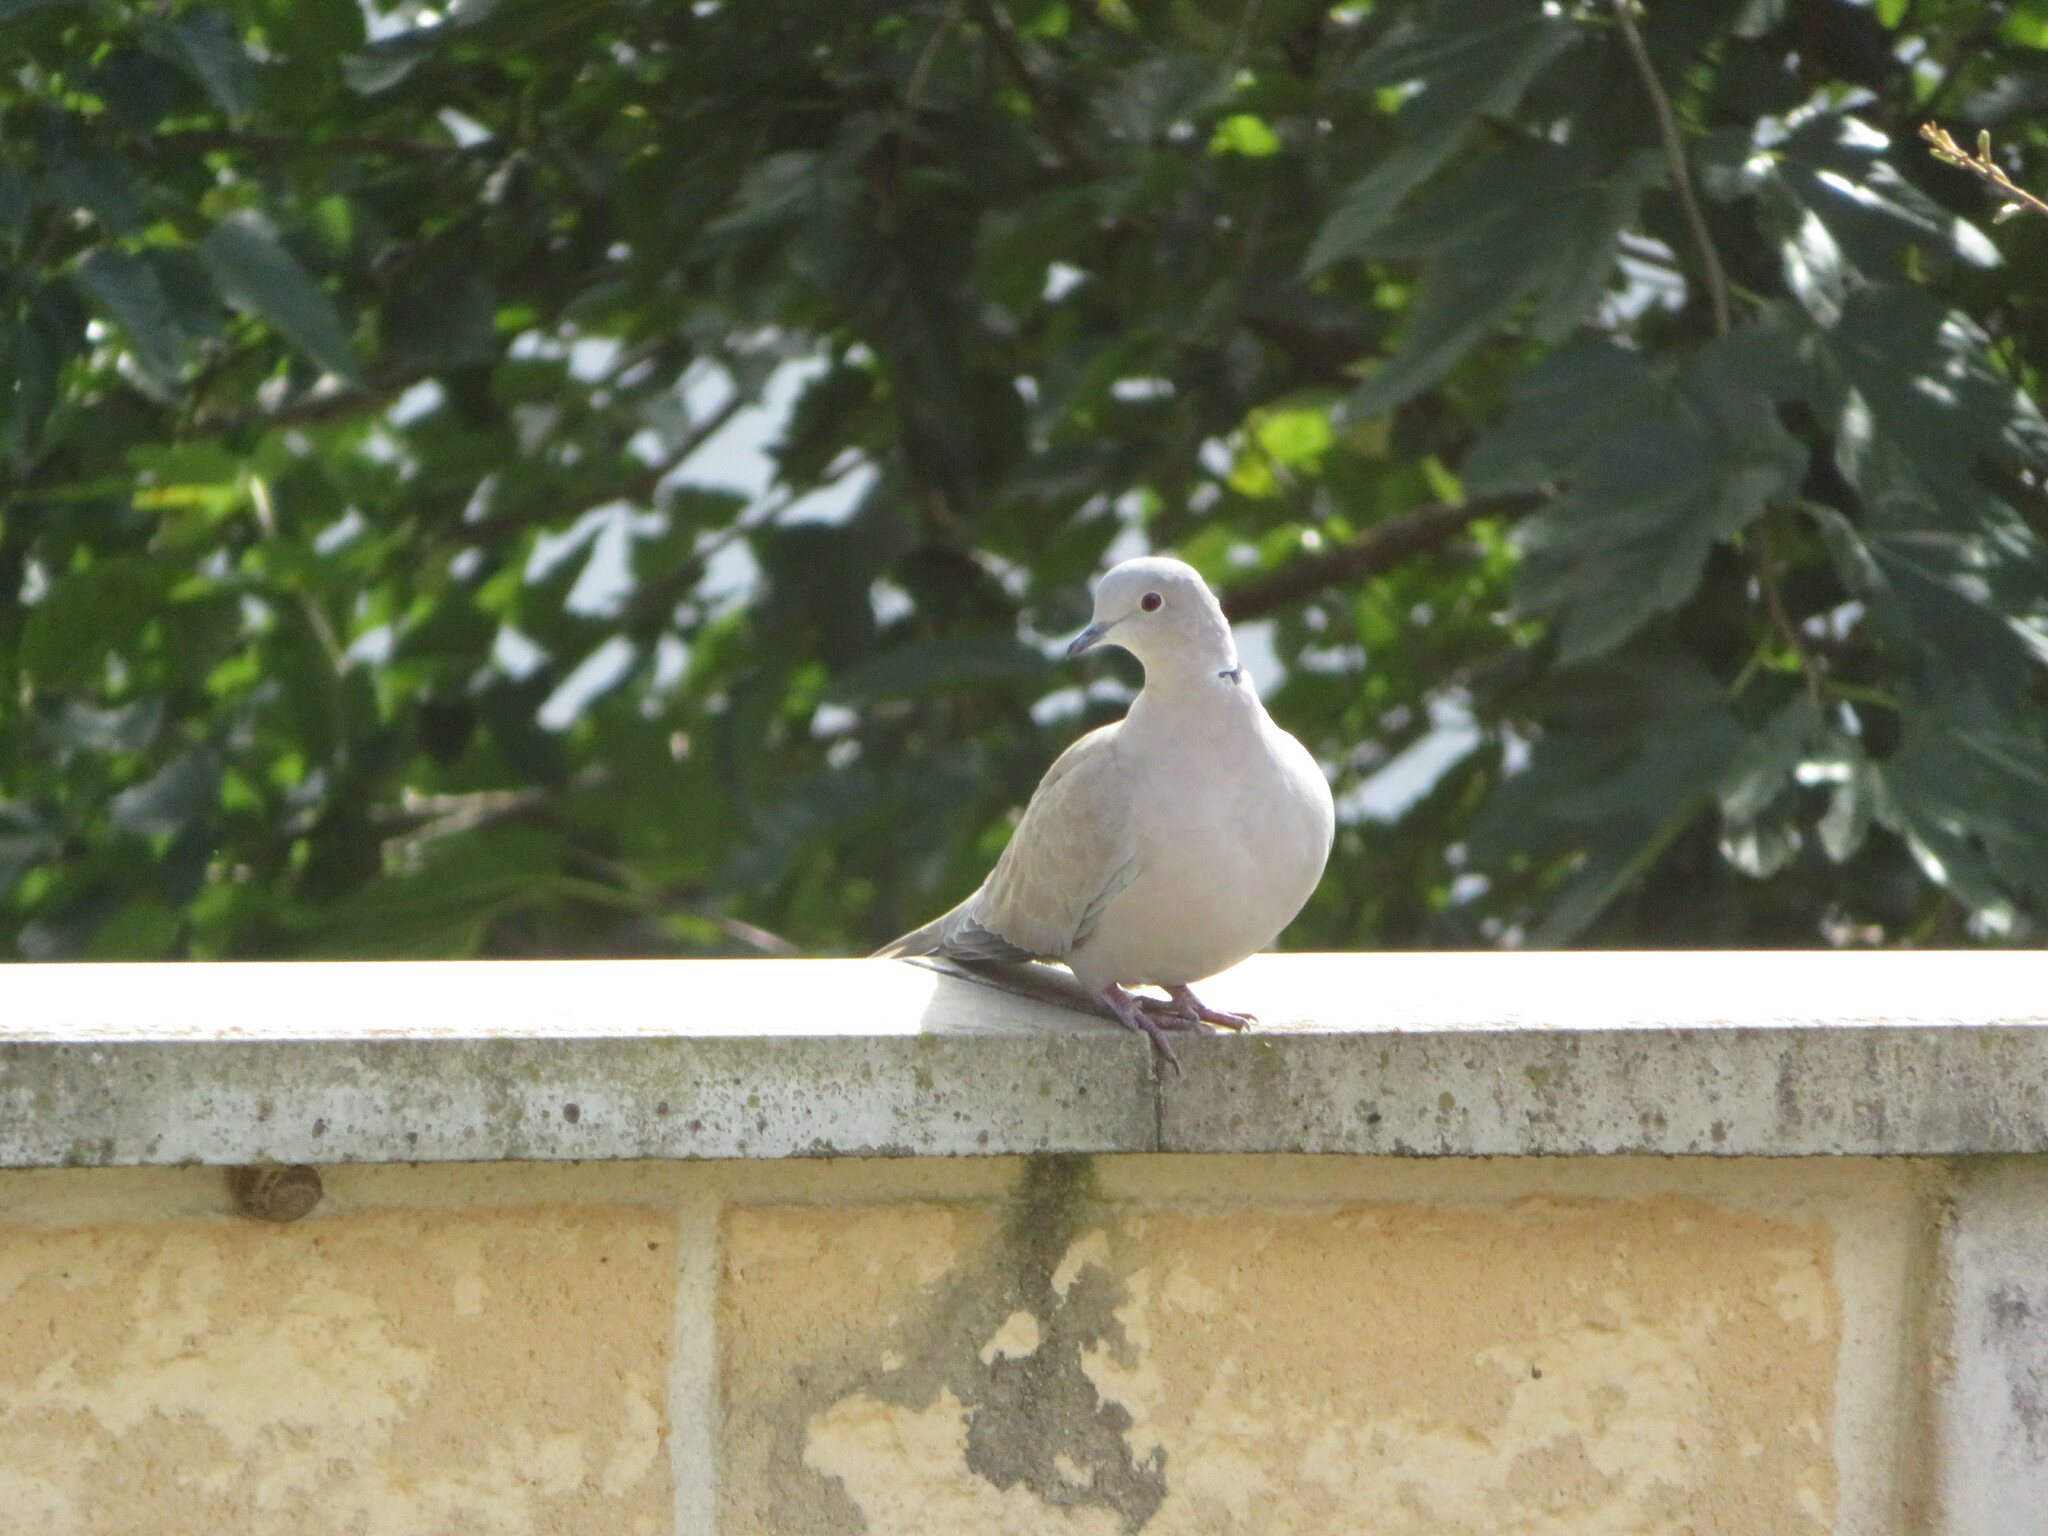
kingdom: Animalia
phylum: Chordata
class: Aves
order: Columbiformes
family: Columbidae
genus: Streptopelia
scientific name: Streptopelia decaocto
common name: Eurasian collared dove
